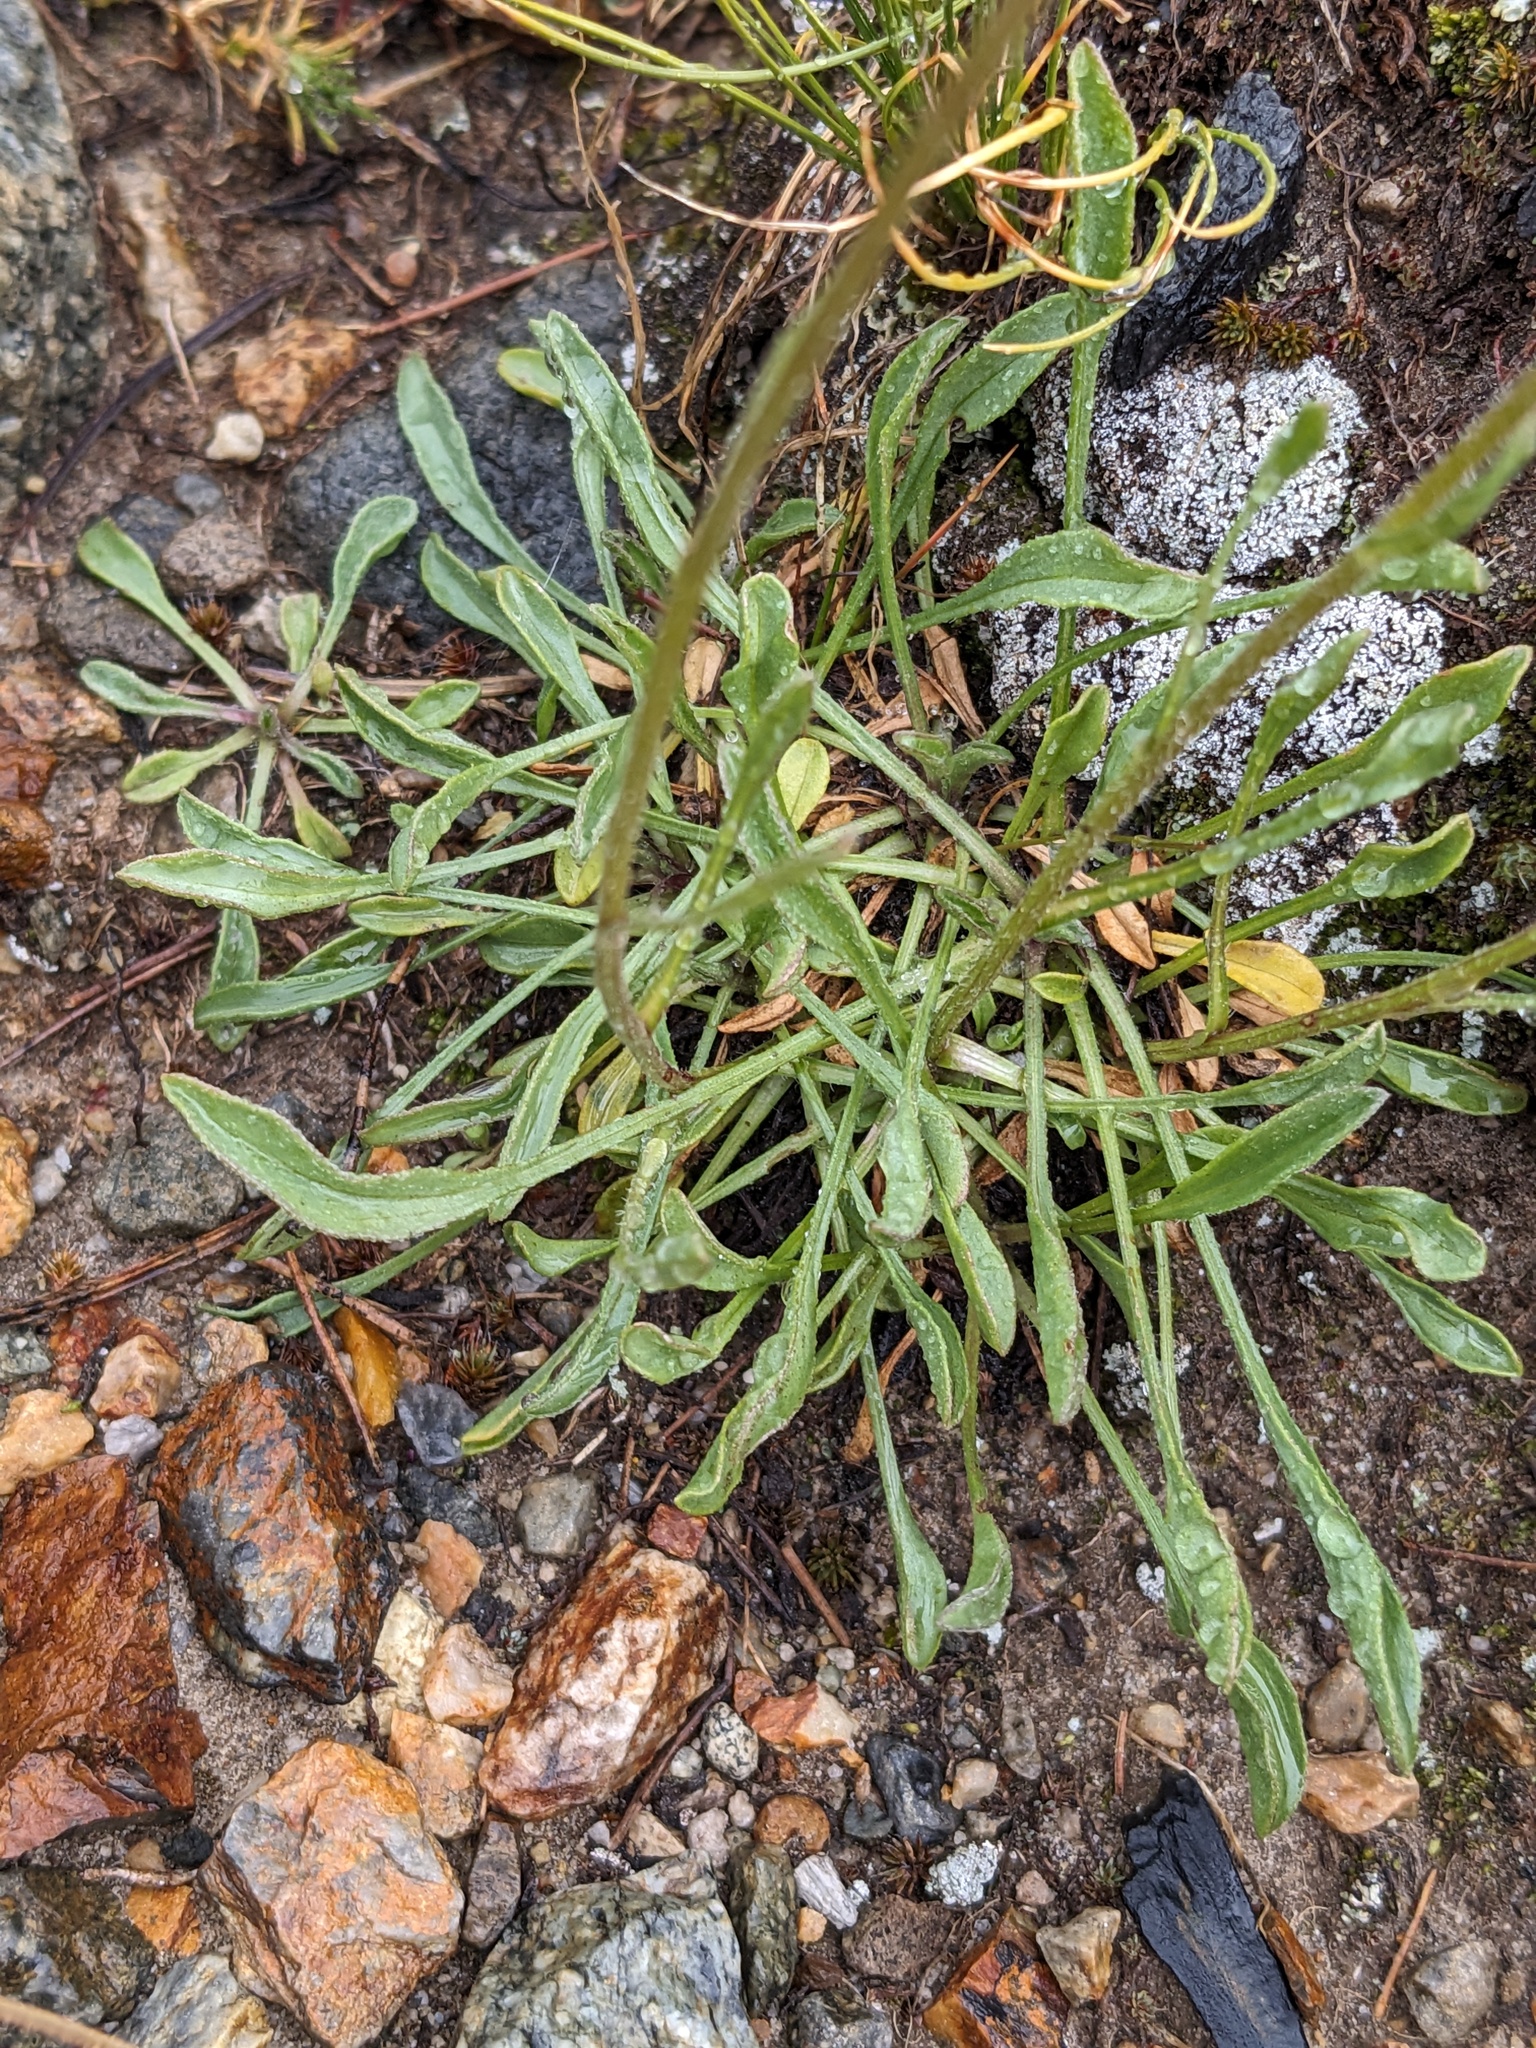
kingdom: Plantae
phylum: Tracheophyta
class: Magnoliopsida
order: Asterales
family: Asteraceae
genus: Erigeron
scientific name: Erigeron algidus
